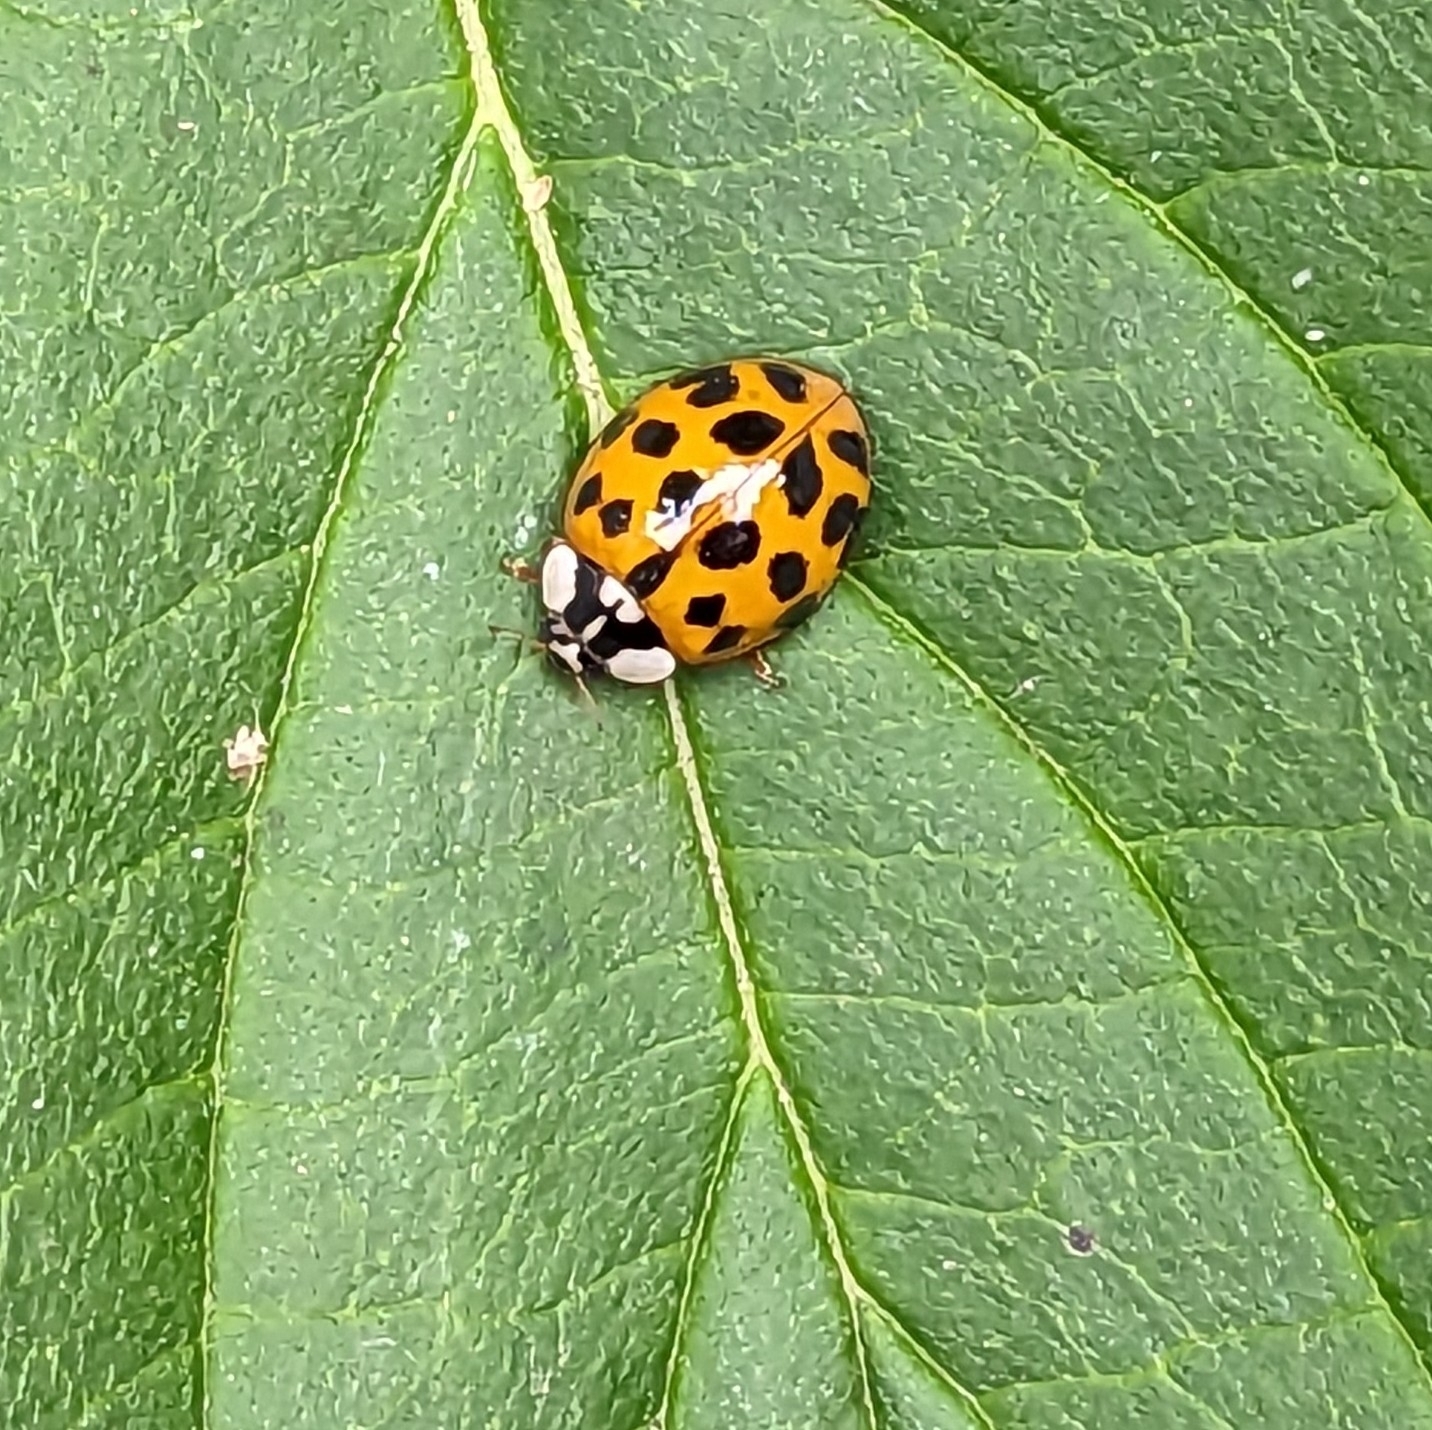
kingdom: Animalia
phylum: Arthropoda
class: Insecta
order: Coleoptera
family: Coccinellidae
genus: Harmonia
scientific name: Harmonia axyridis
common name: Harlequin ladybird
